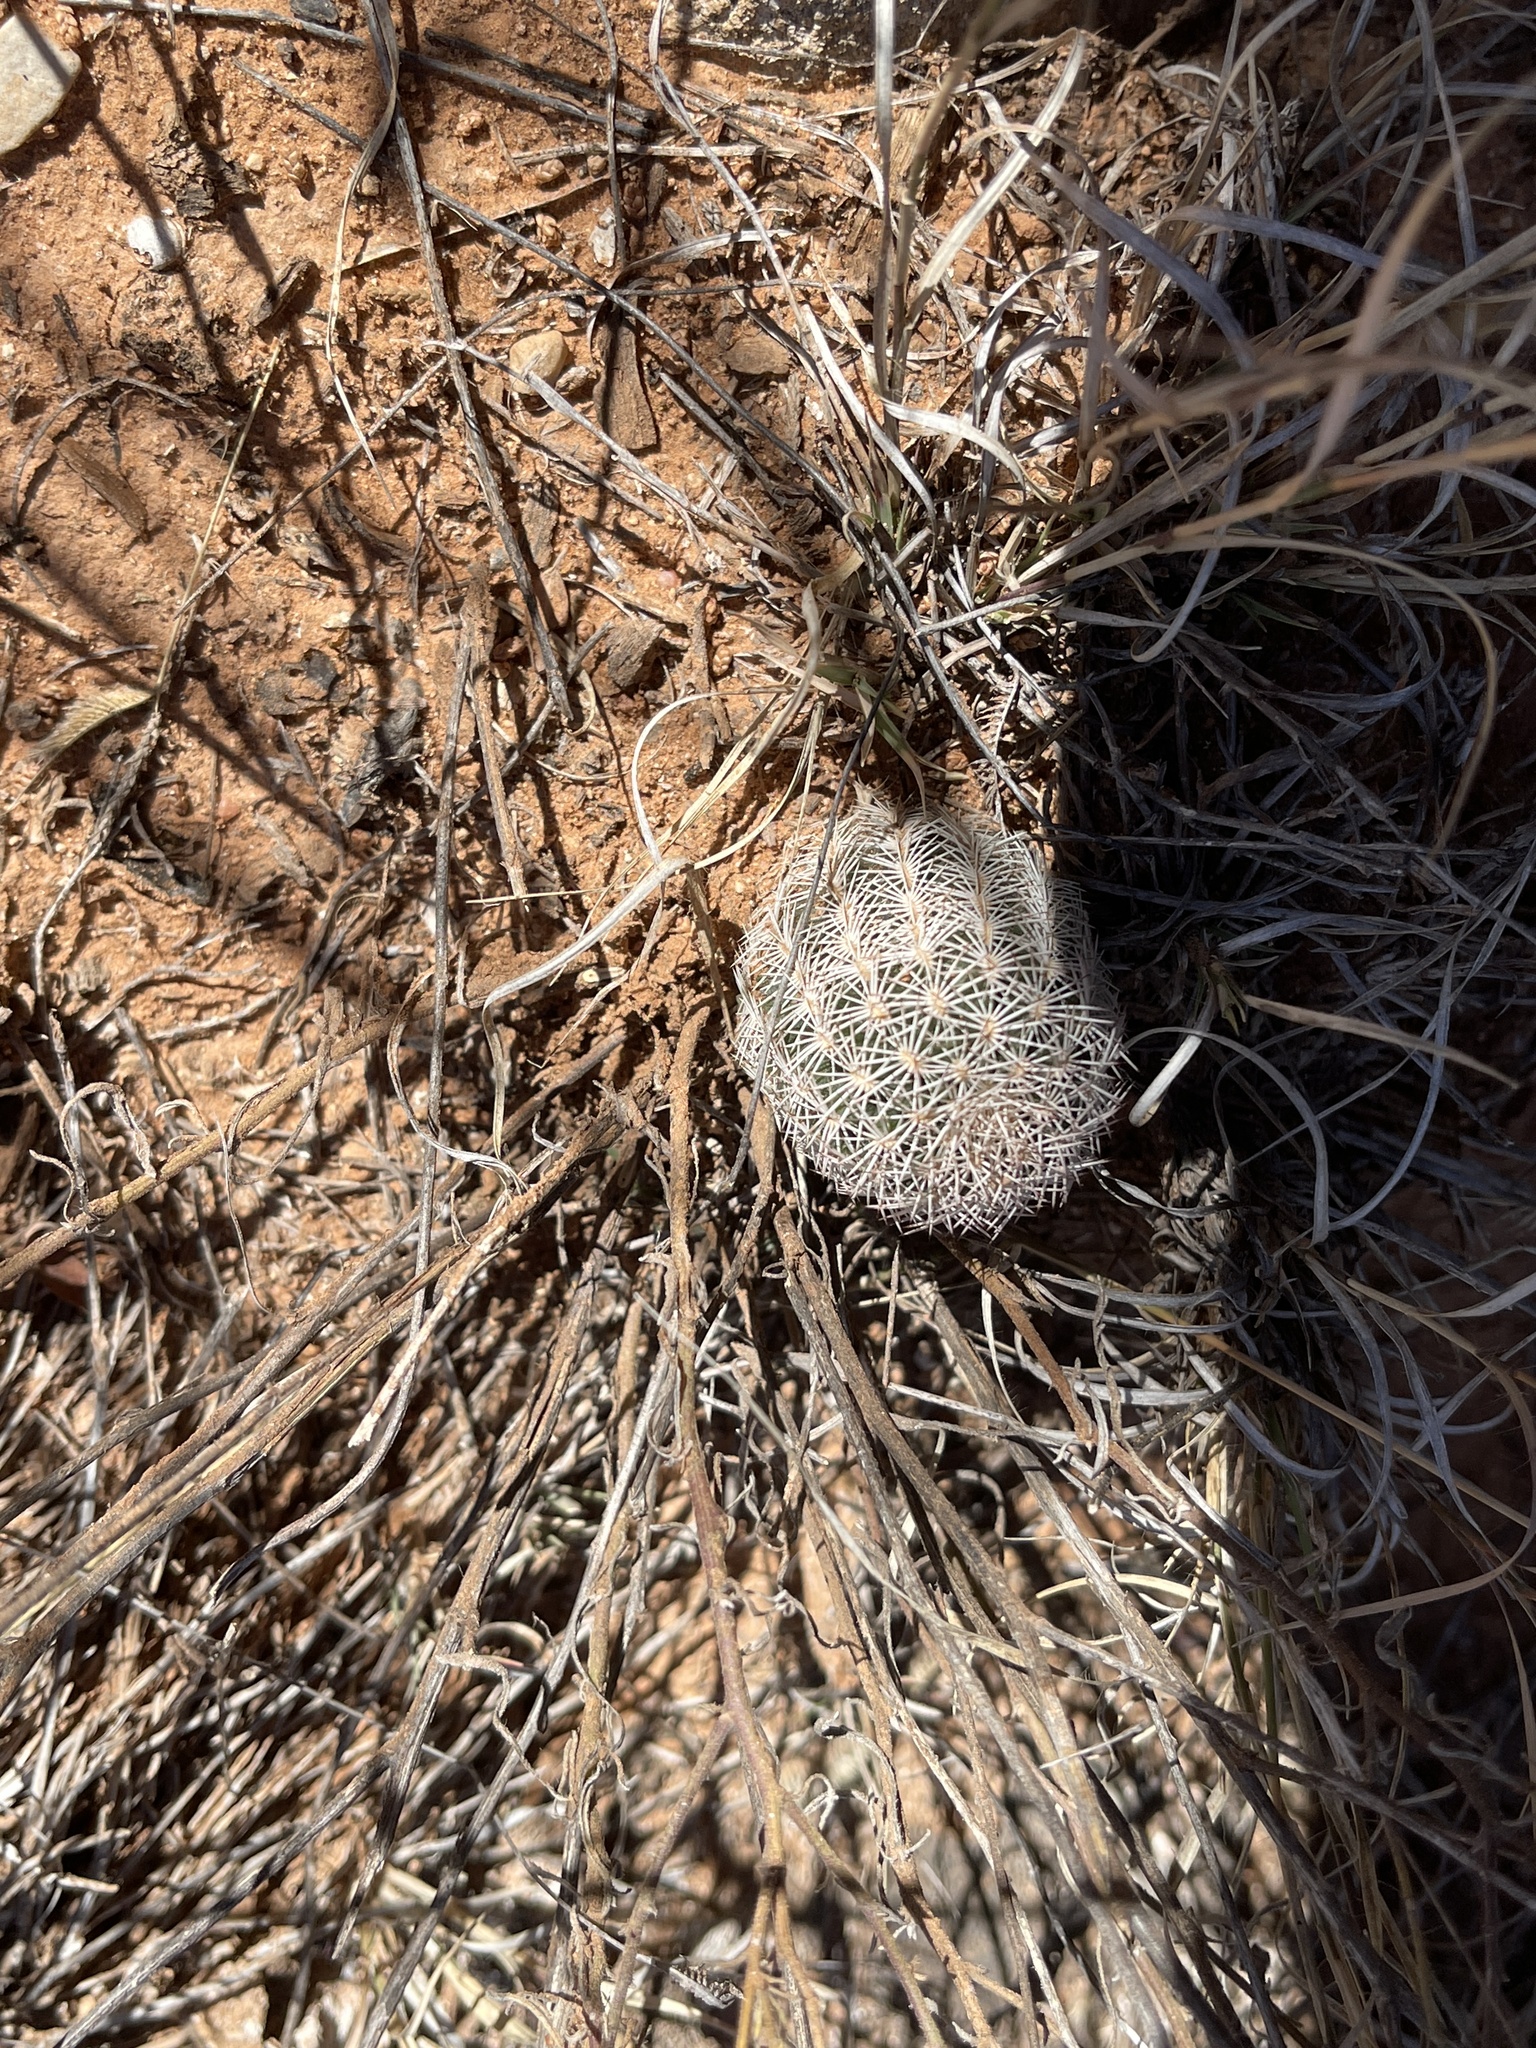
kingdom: Plantae
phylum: Tracheophyta
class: Magnoliopsida
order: Caryophyllales
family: Cactaceae
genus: Echinocereus
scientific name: Echinocereus reichenbachii
